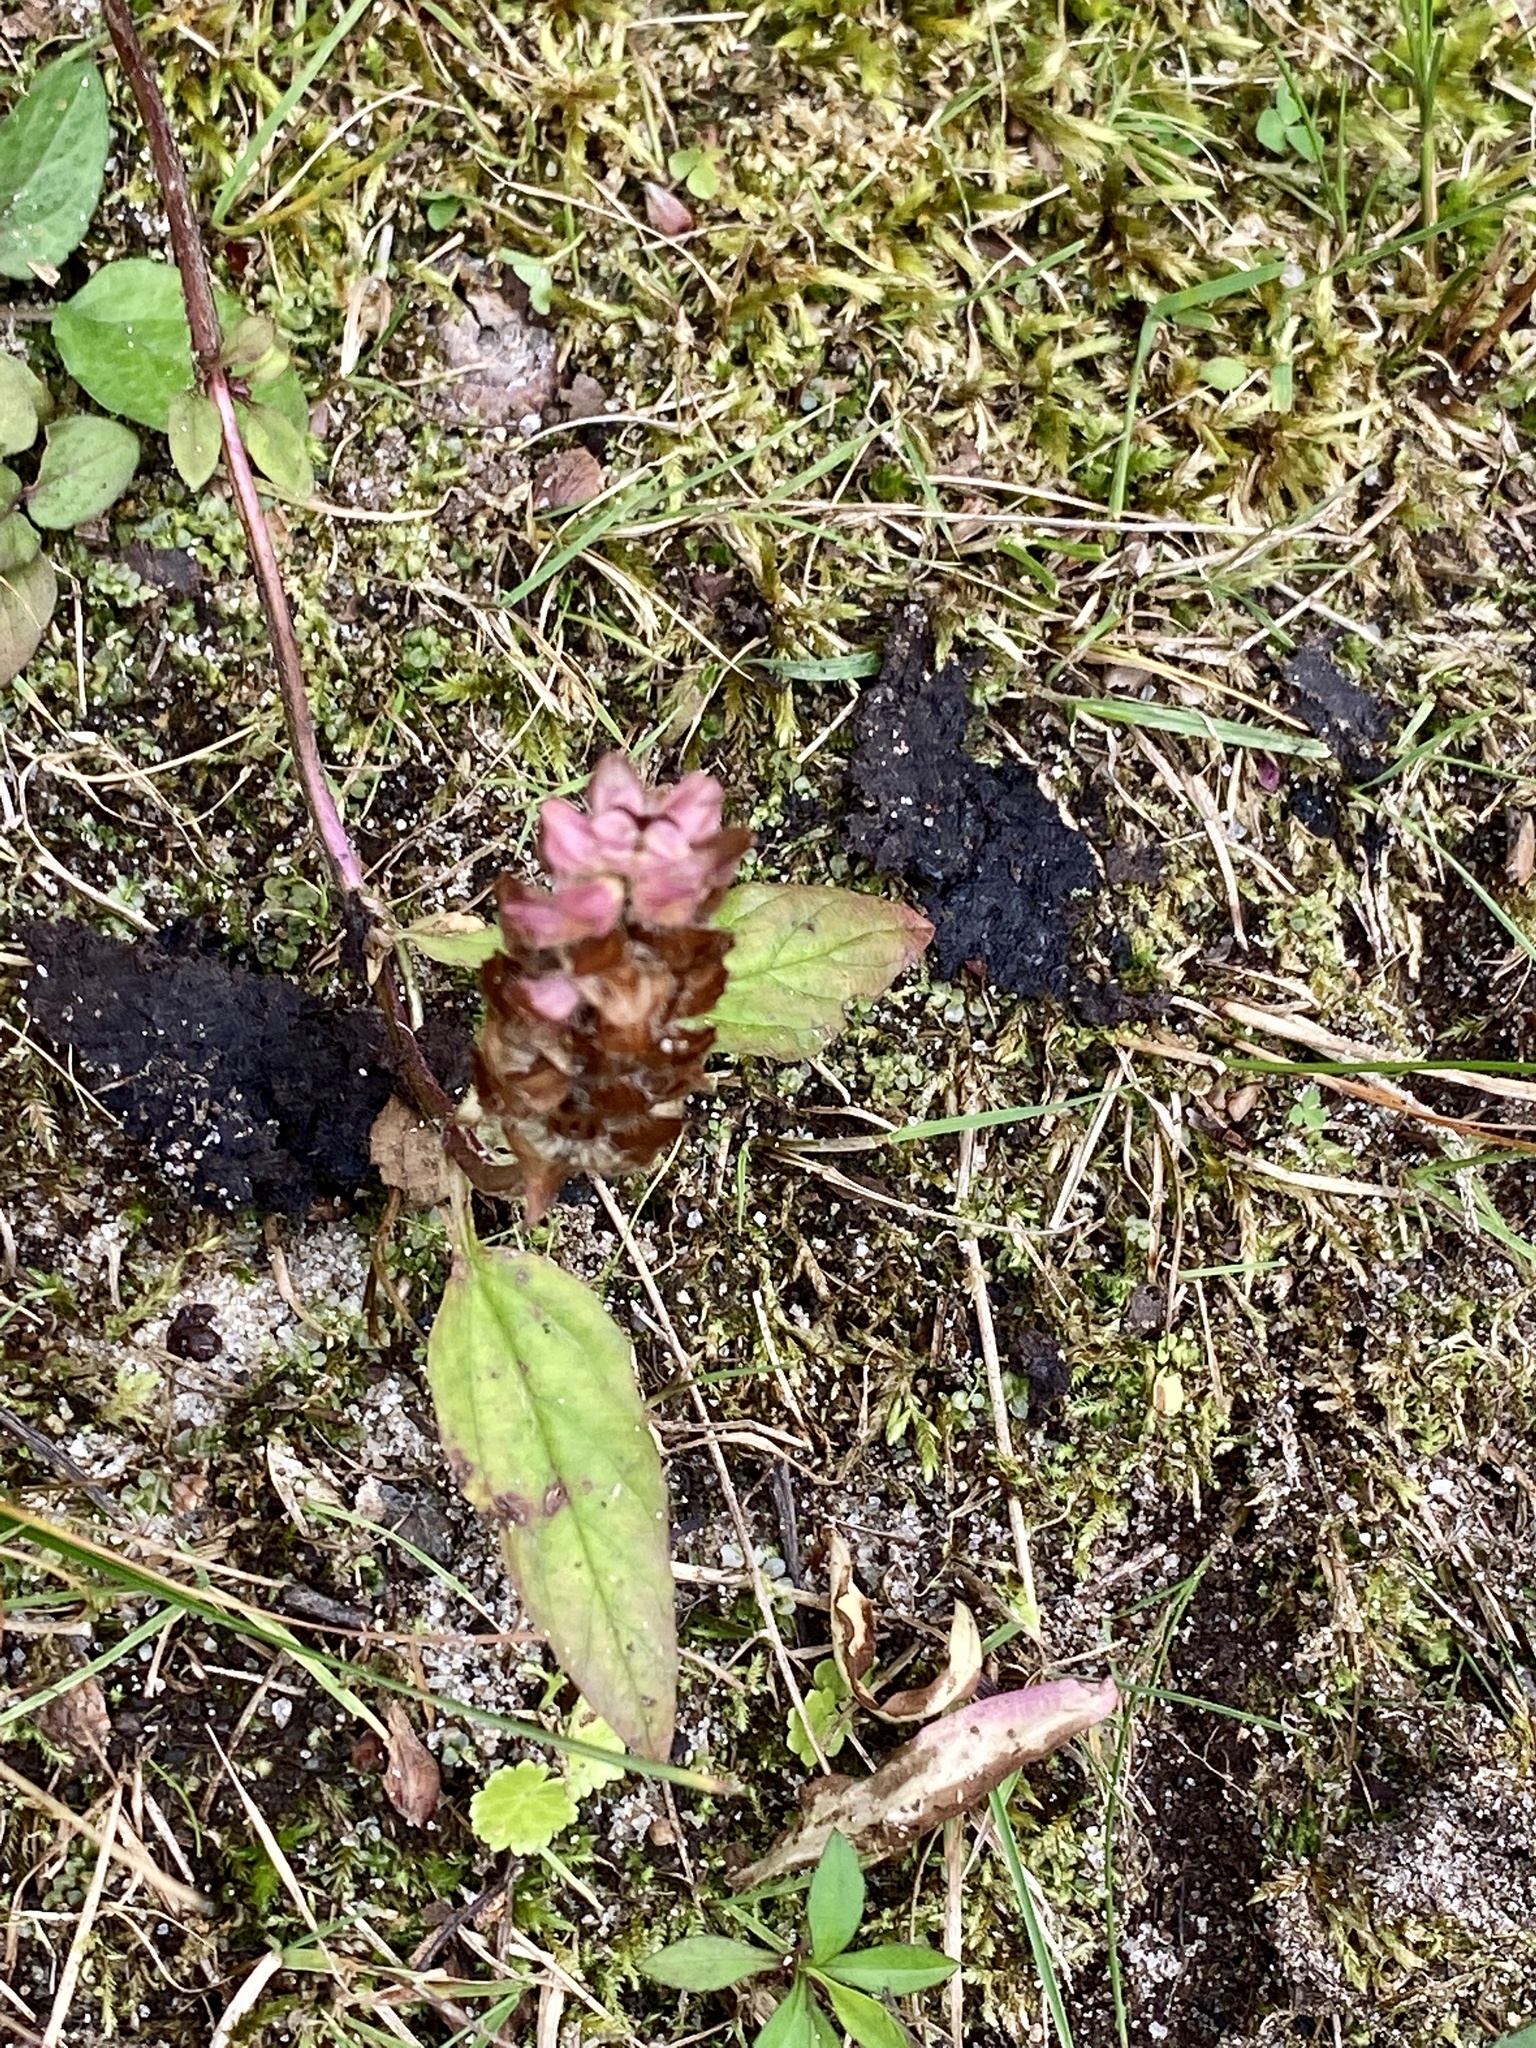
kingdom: Plantae
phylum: Tracheophyta
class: Magnoliopsida
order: Lamiales
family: Lamiaceae
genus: Prunella
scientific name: Prunella vulgaris
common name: Heal-all
